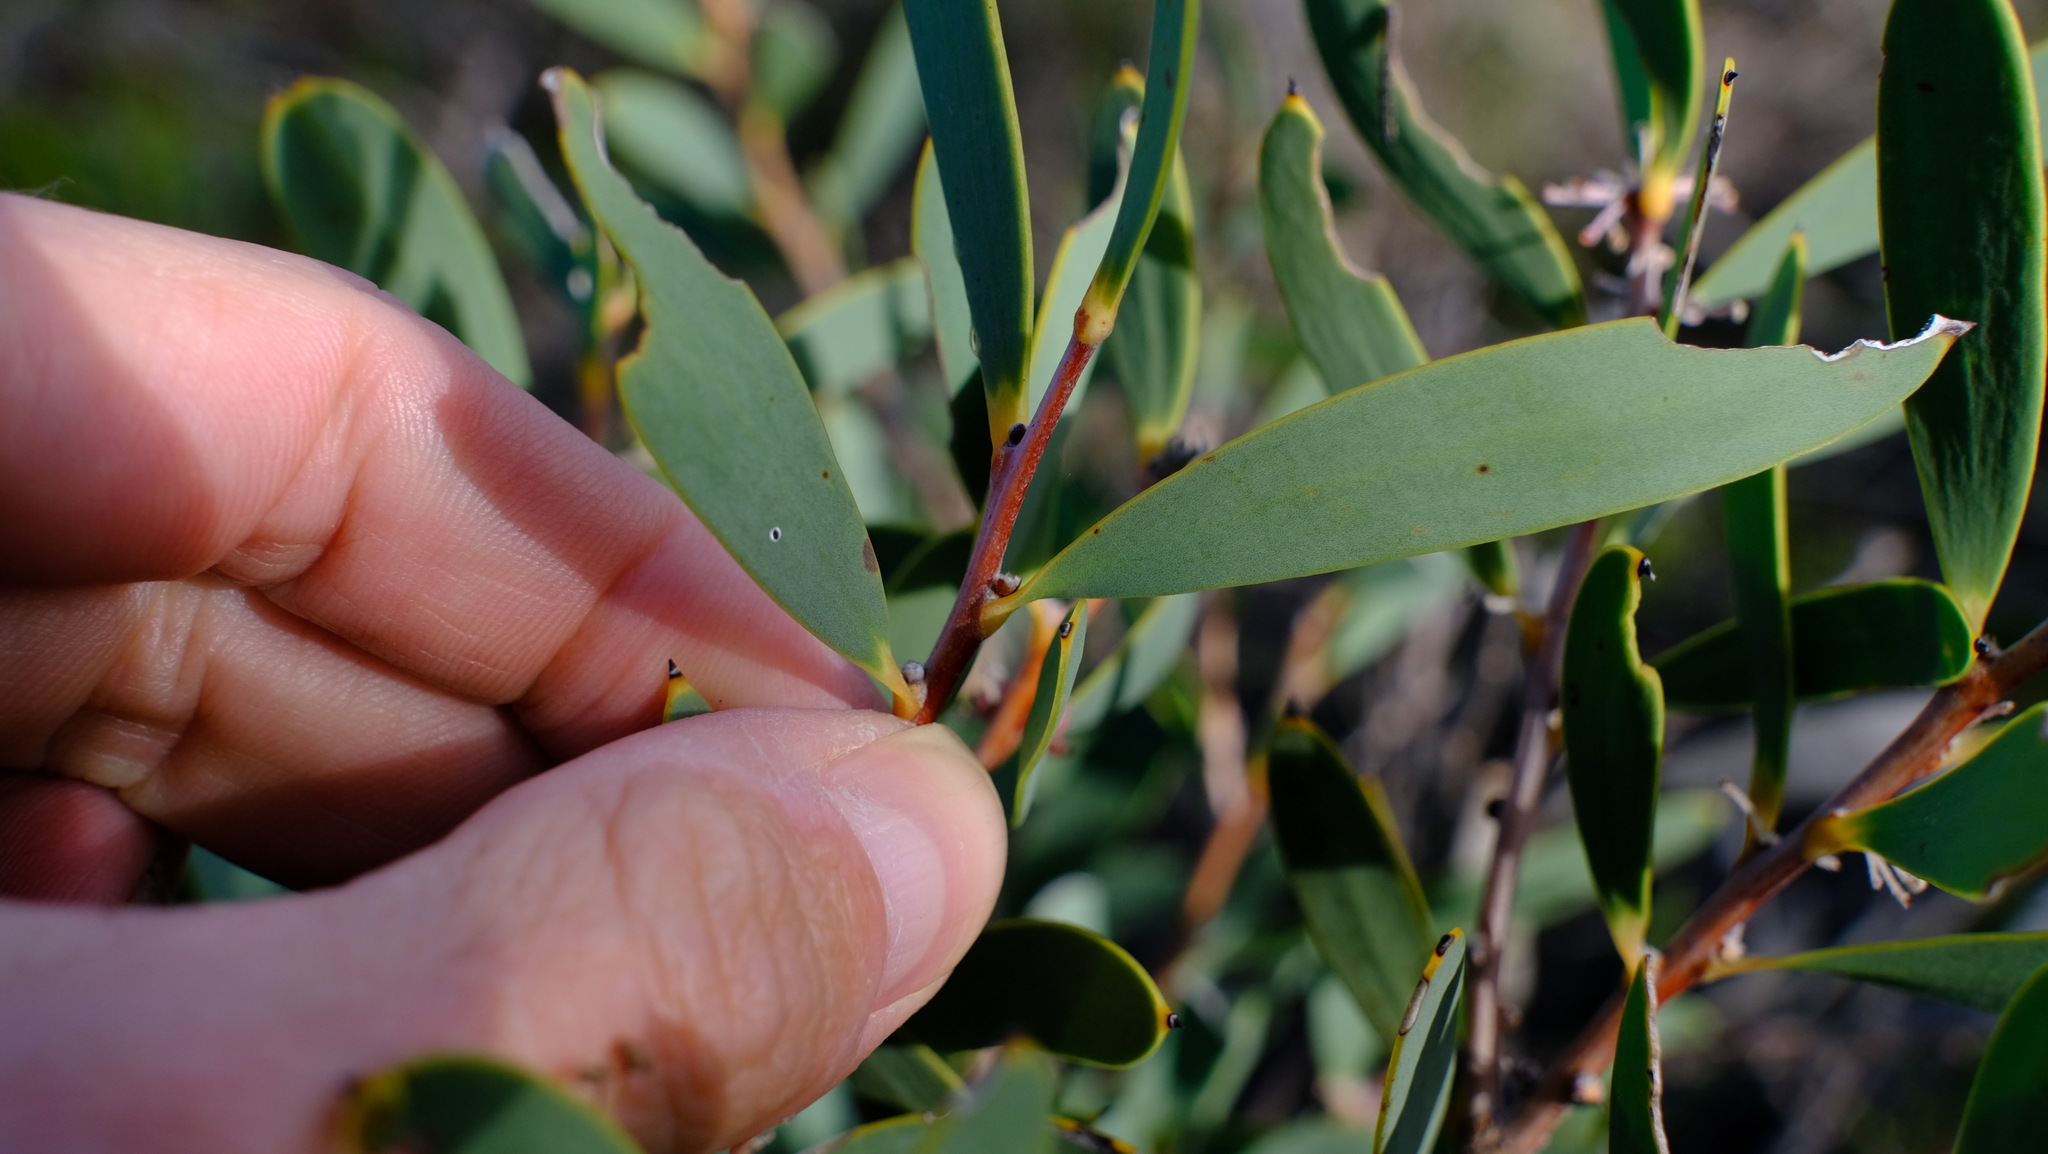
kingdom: Plantae
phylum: Tracheophyta
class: Magnoliopsida
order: Proteales
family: Proteaceae
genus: Hakea
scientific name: Hakea incrassata
